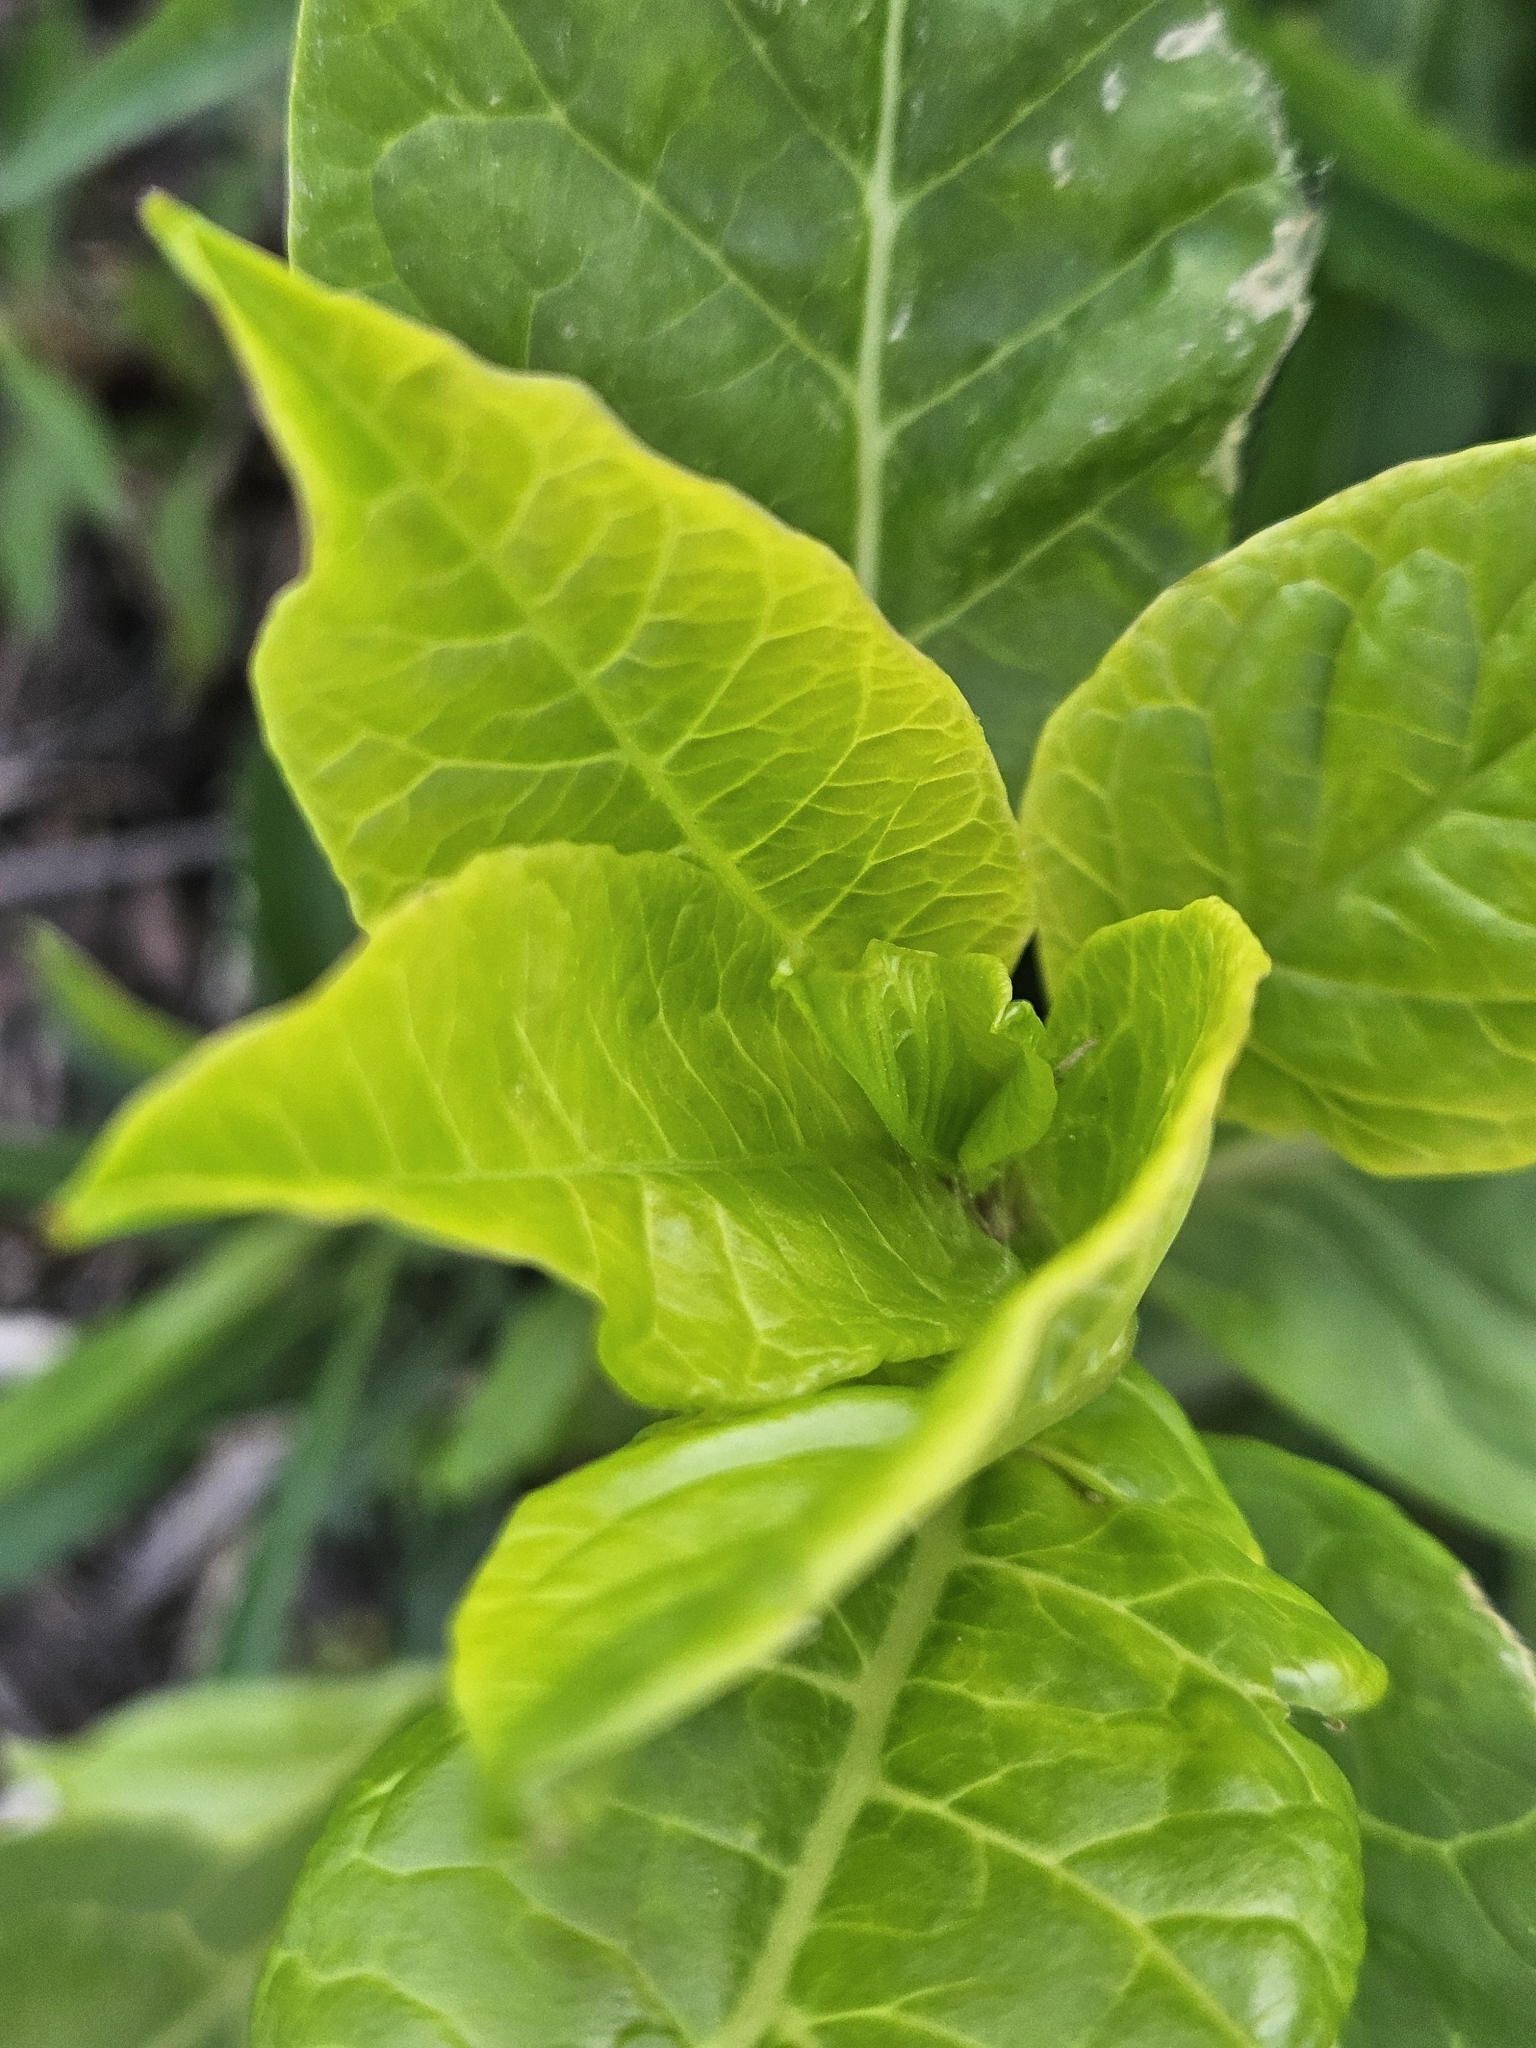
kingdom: Plantae
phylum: Tracheophyta
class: Magnoliopsida
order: Caryophyllales
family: Phytolaccaceae
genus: Phytolacca
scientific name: Phytolacca americana
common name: American pokeweed
